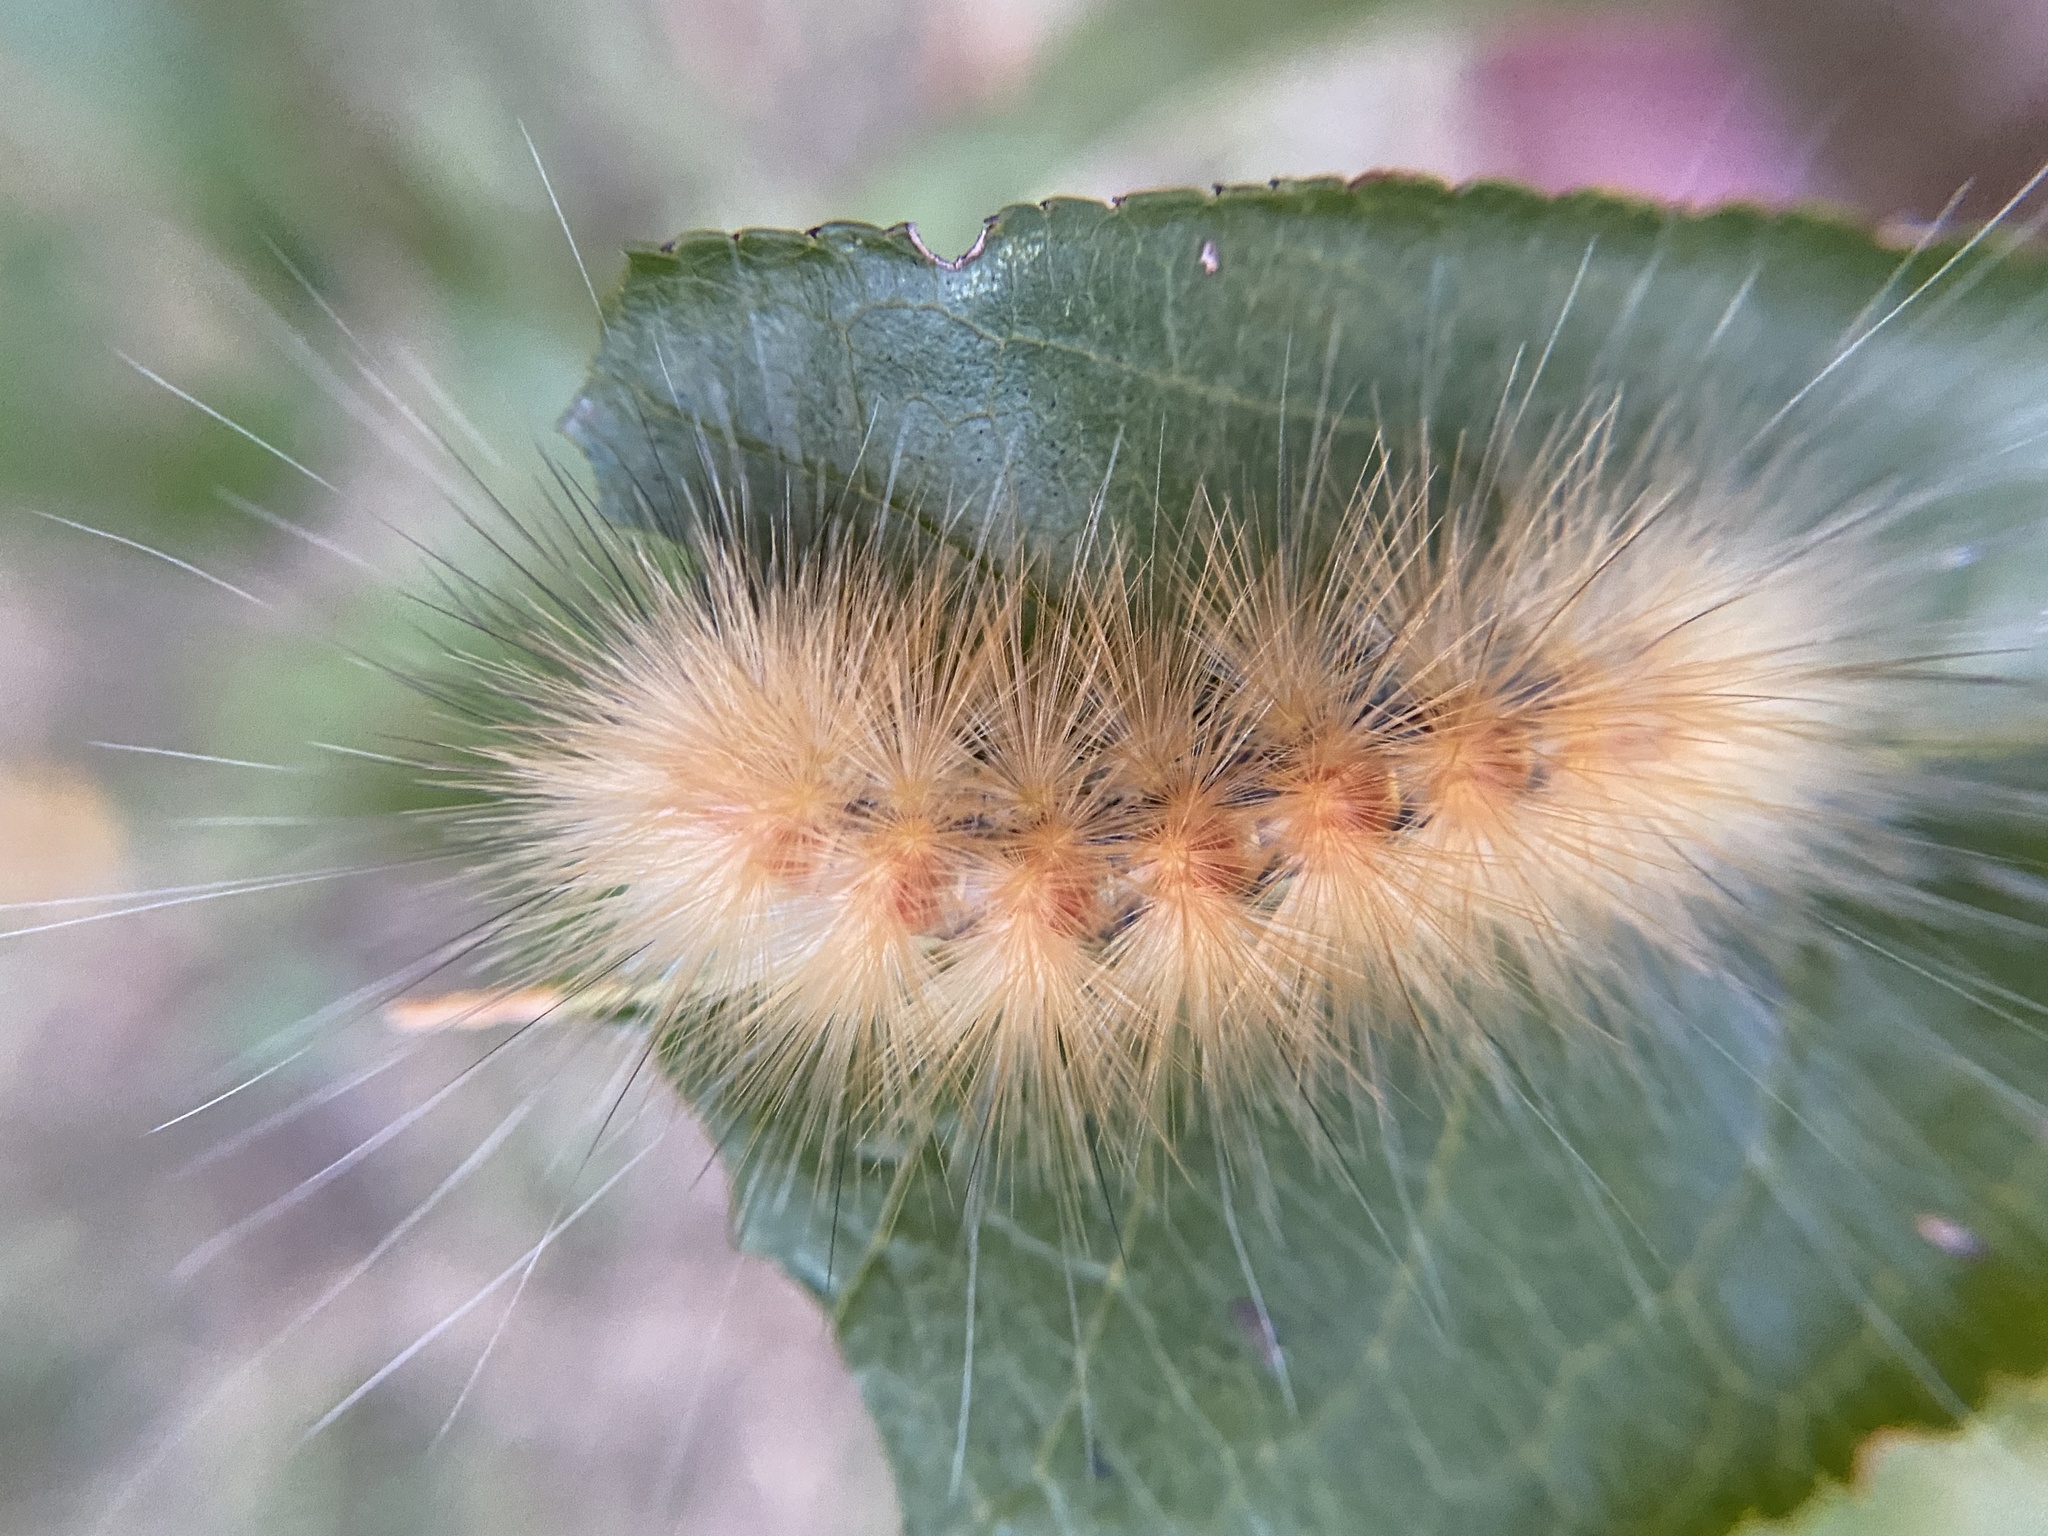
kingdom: Animalia
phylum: Arthropoda
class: Insecta
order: Lepidoptera
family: Erebidae
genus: Spilosoma
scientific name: Spilosoma virginica
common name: Virginia tiger moth
